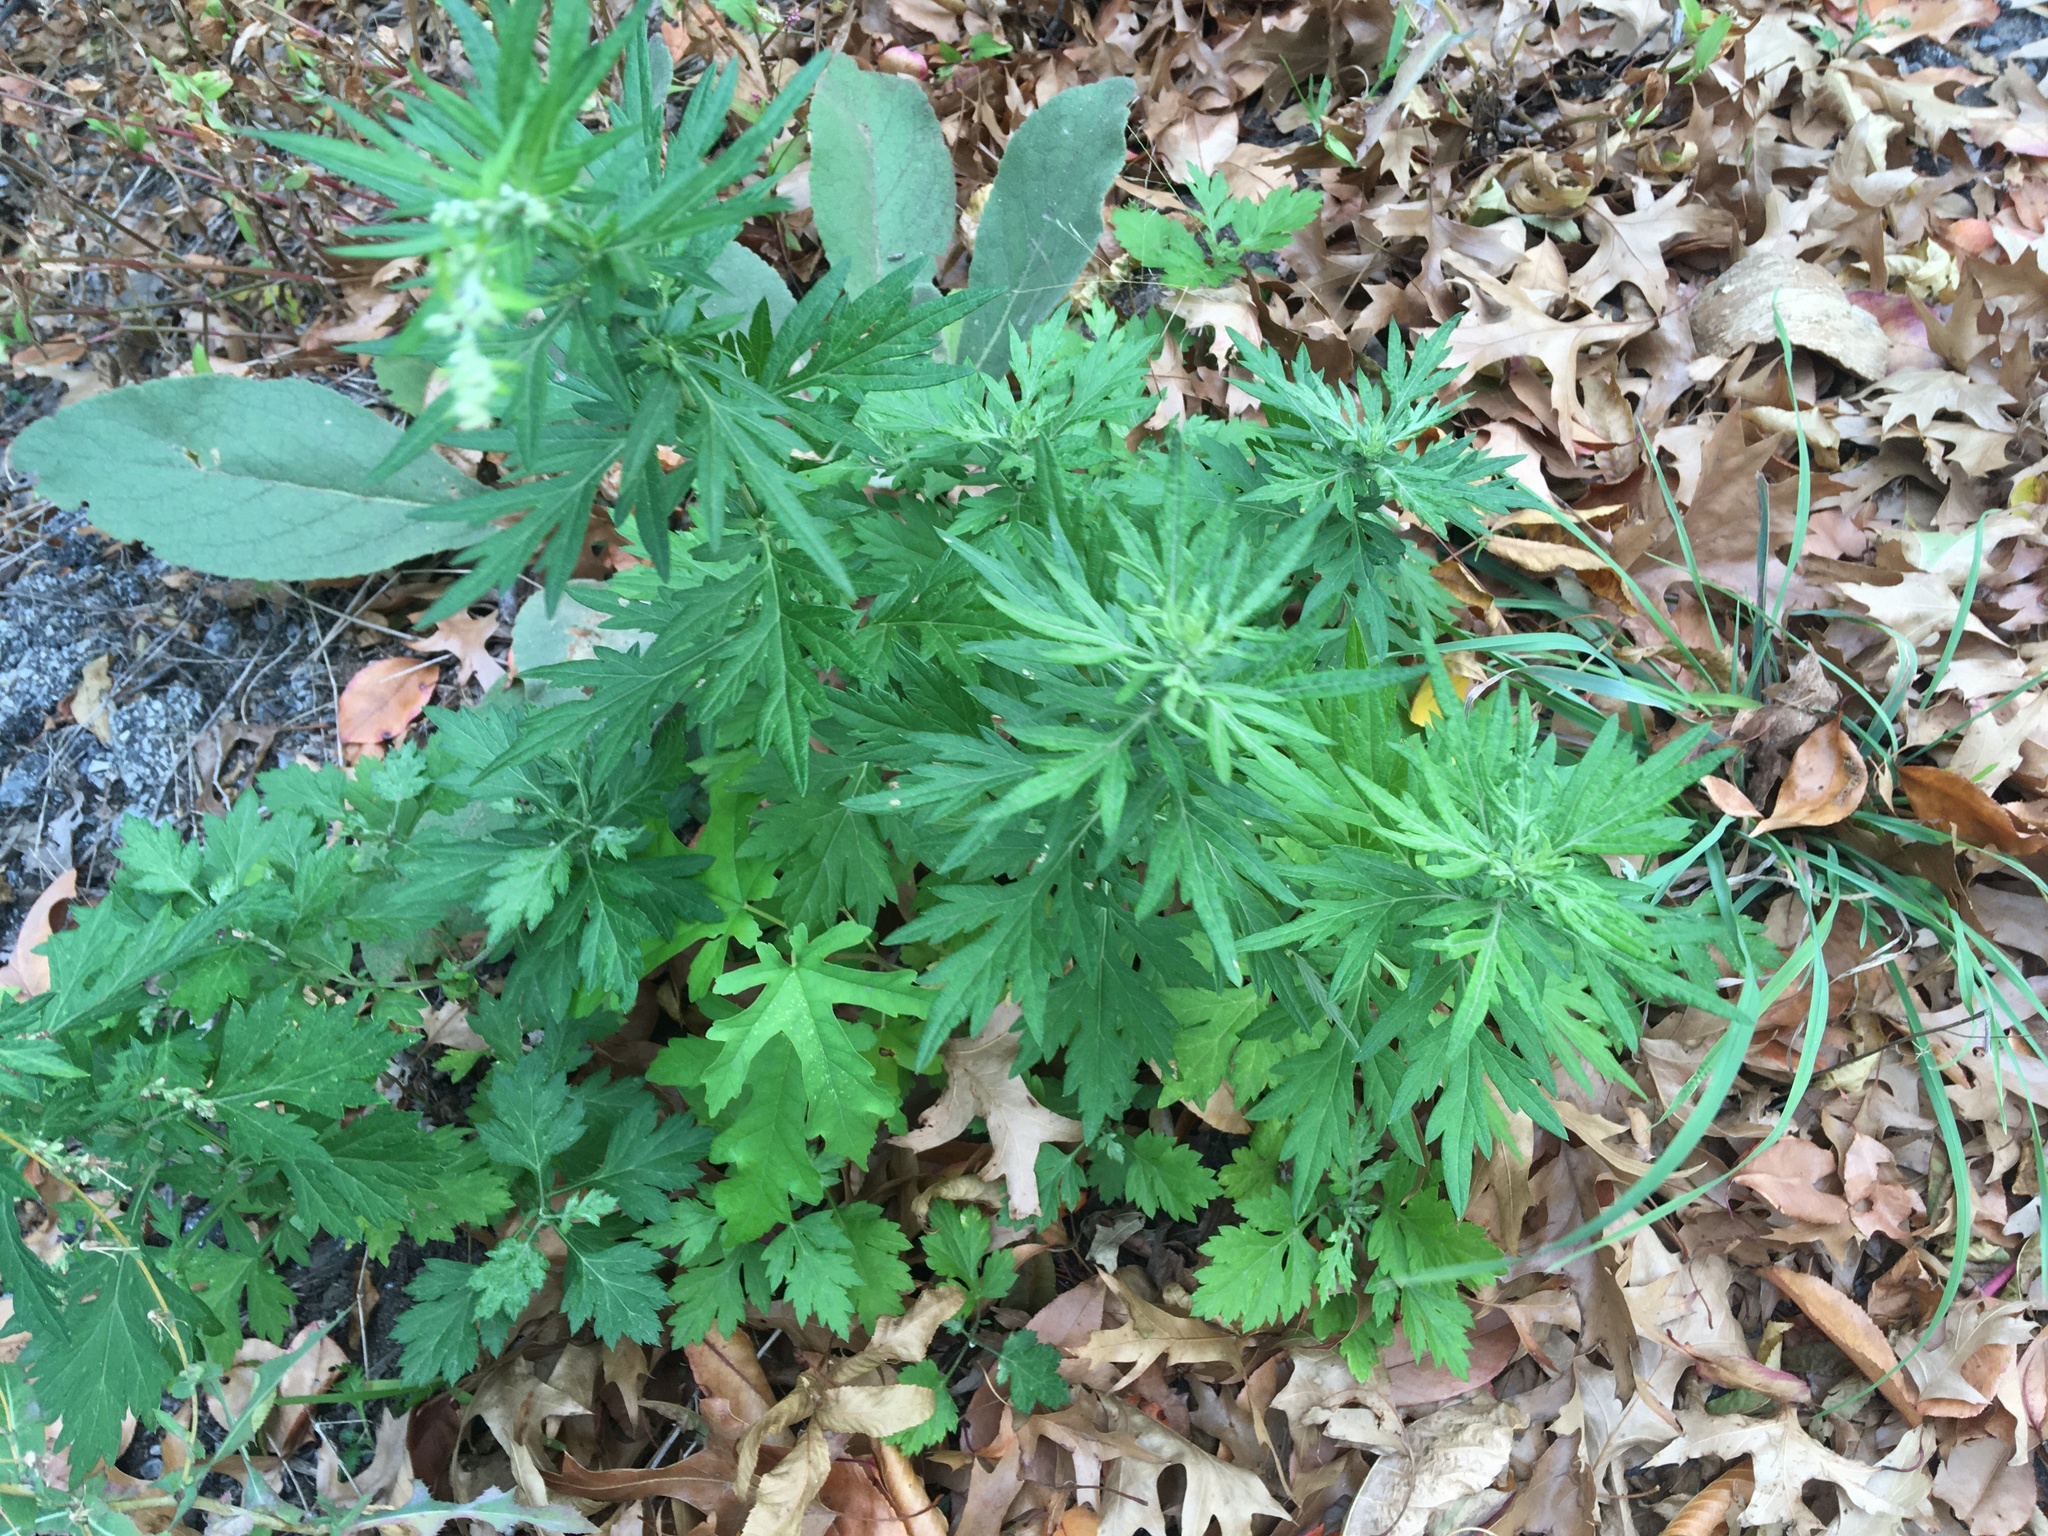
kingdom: Plantae
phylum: Tracheophyta
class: Magnoliopsida
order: Asterales
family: Asteraceae
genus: Artemisia
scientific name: Artemisia vulgaris
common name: Mugwort
